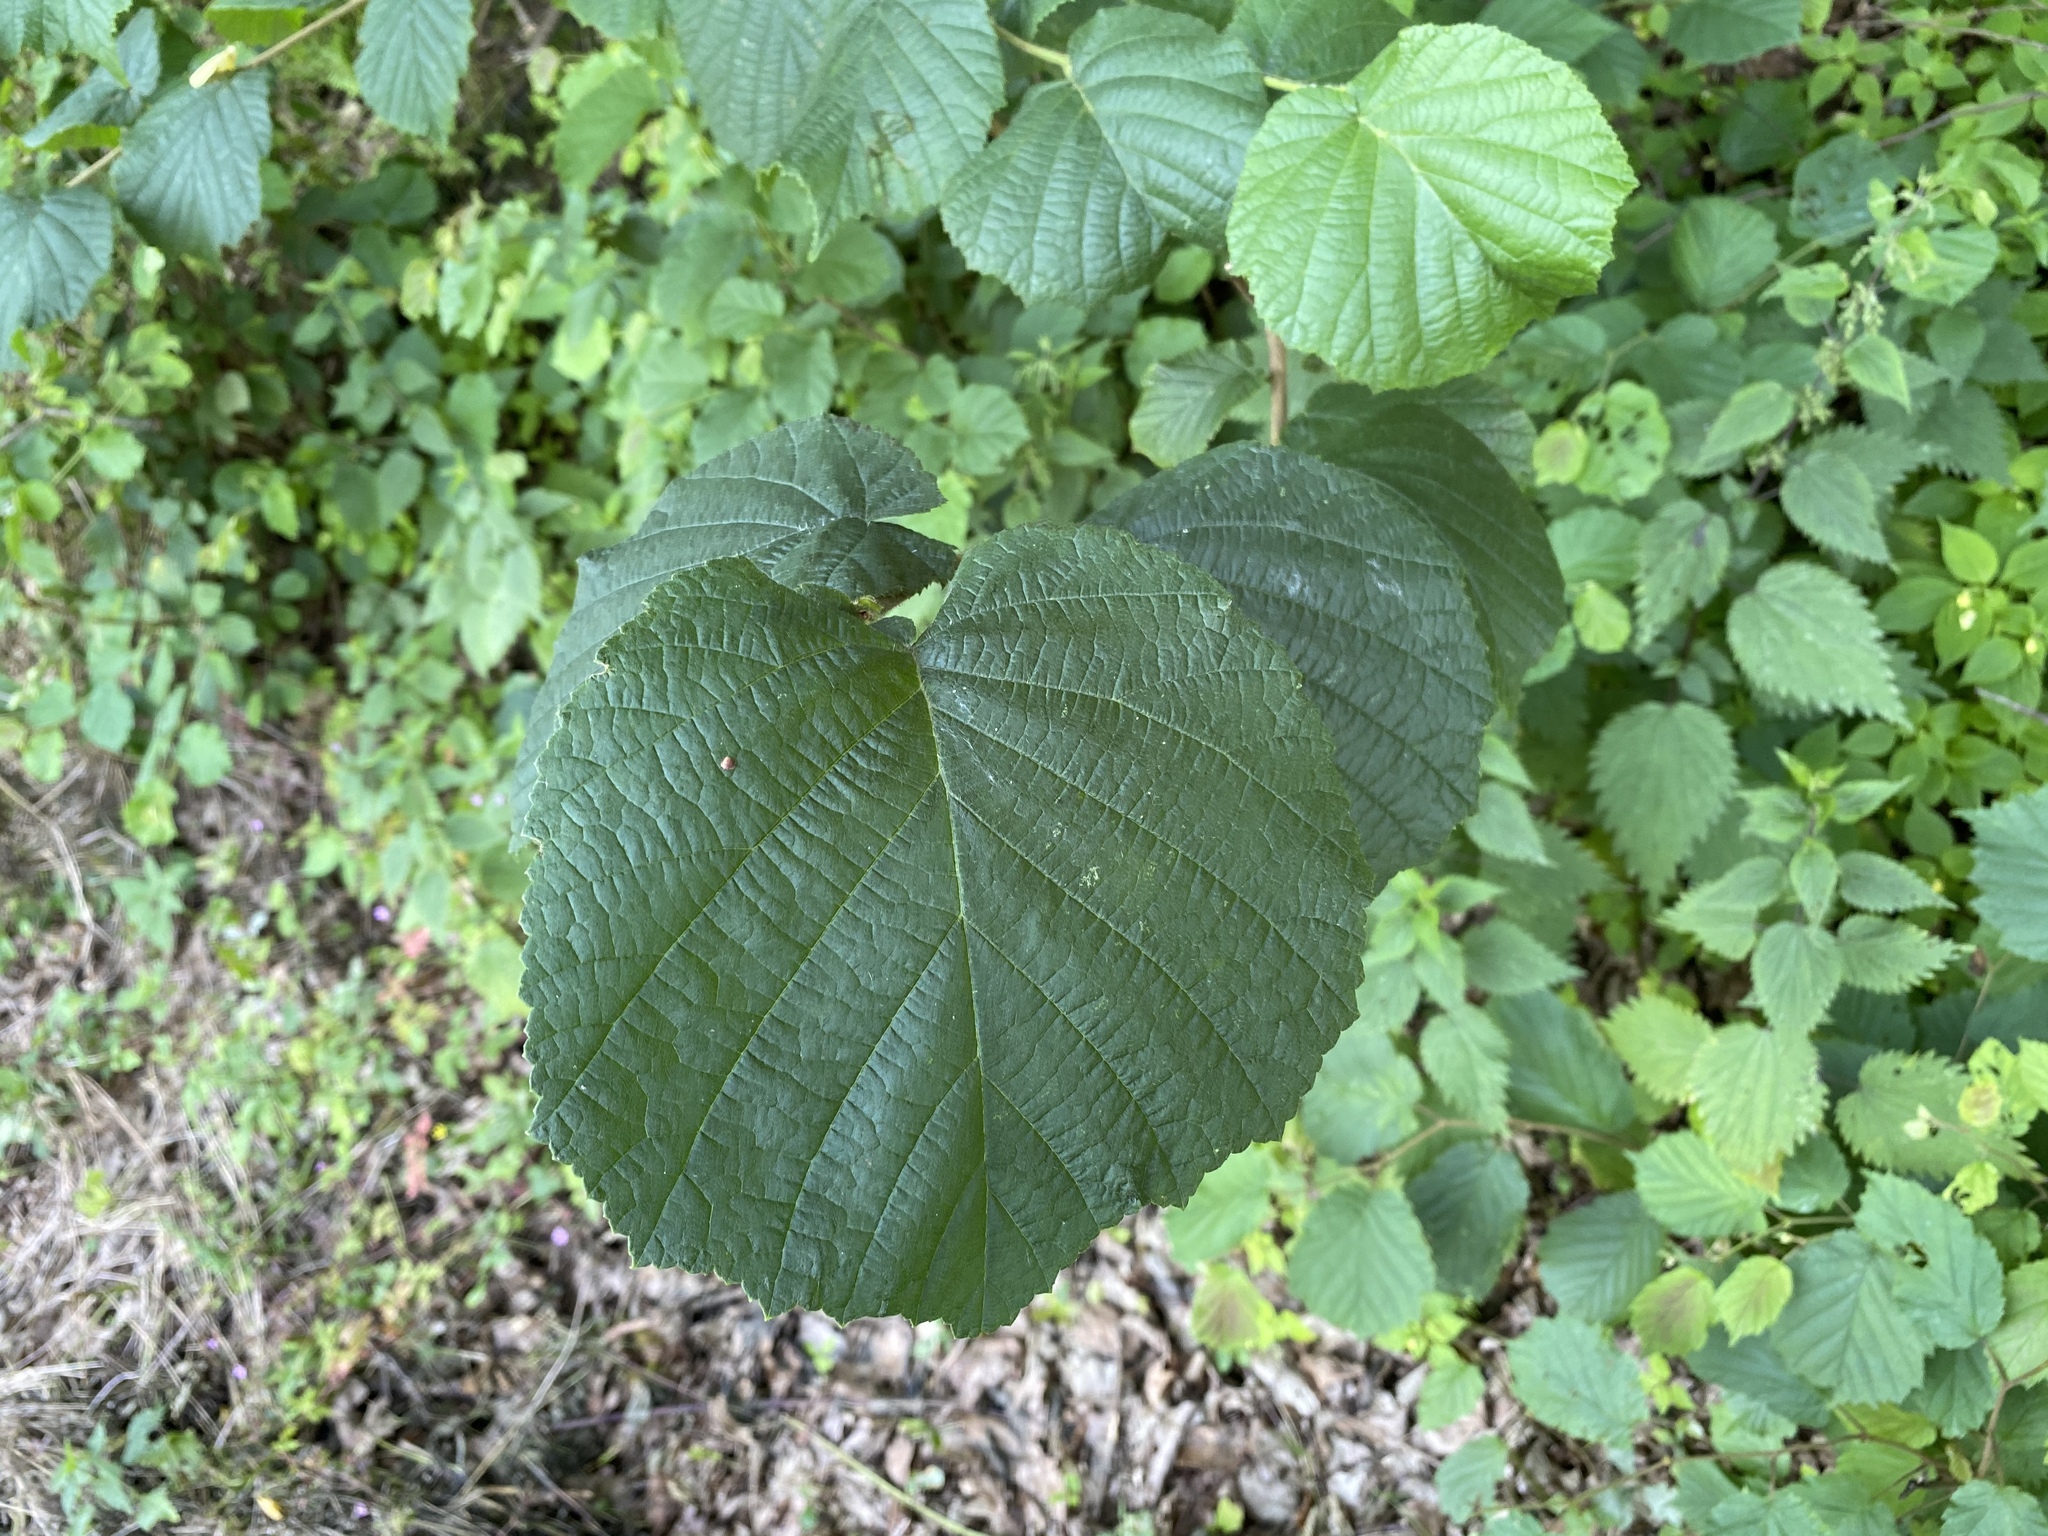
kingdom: Plantae
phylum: Tracheophyta
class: Magnoliopsida
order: Fagales
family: Betulaceae
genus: Corylus
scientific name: Corylus avellana
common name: European hazel
